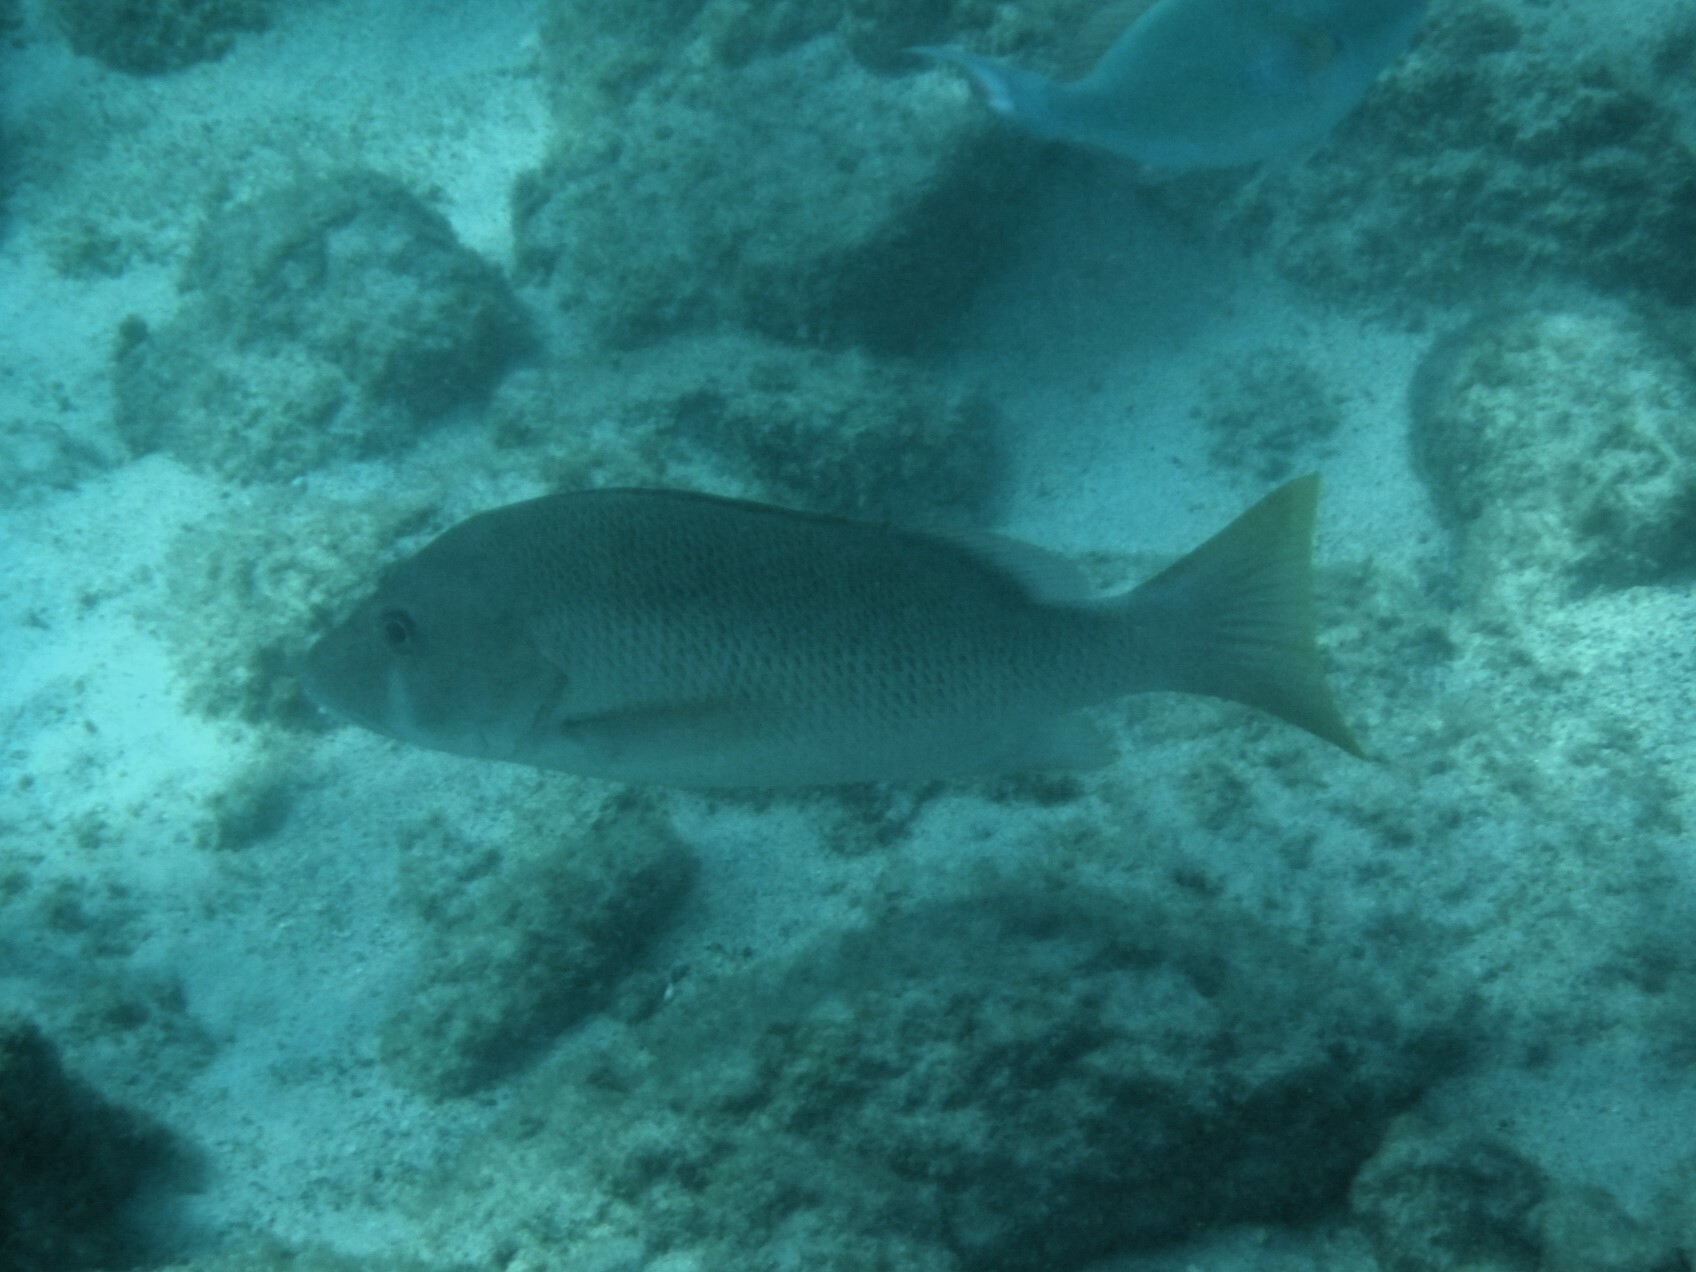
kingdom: Animalia
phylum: Chordata
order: Perciformes
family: Lutjanidae
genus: Lutjanus
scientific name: Lutjanus jocu
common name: Dog snapper
